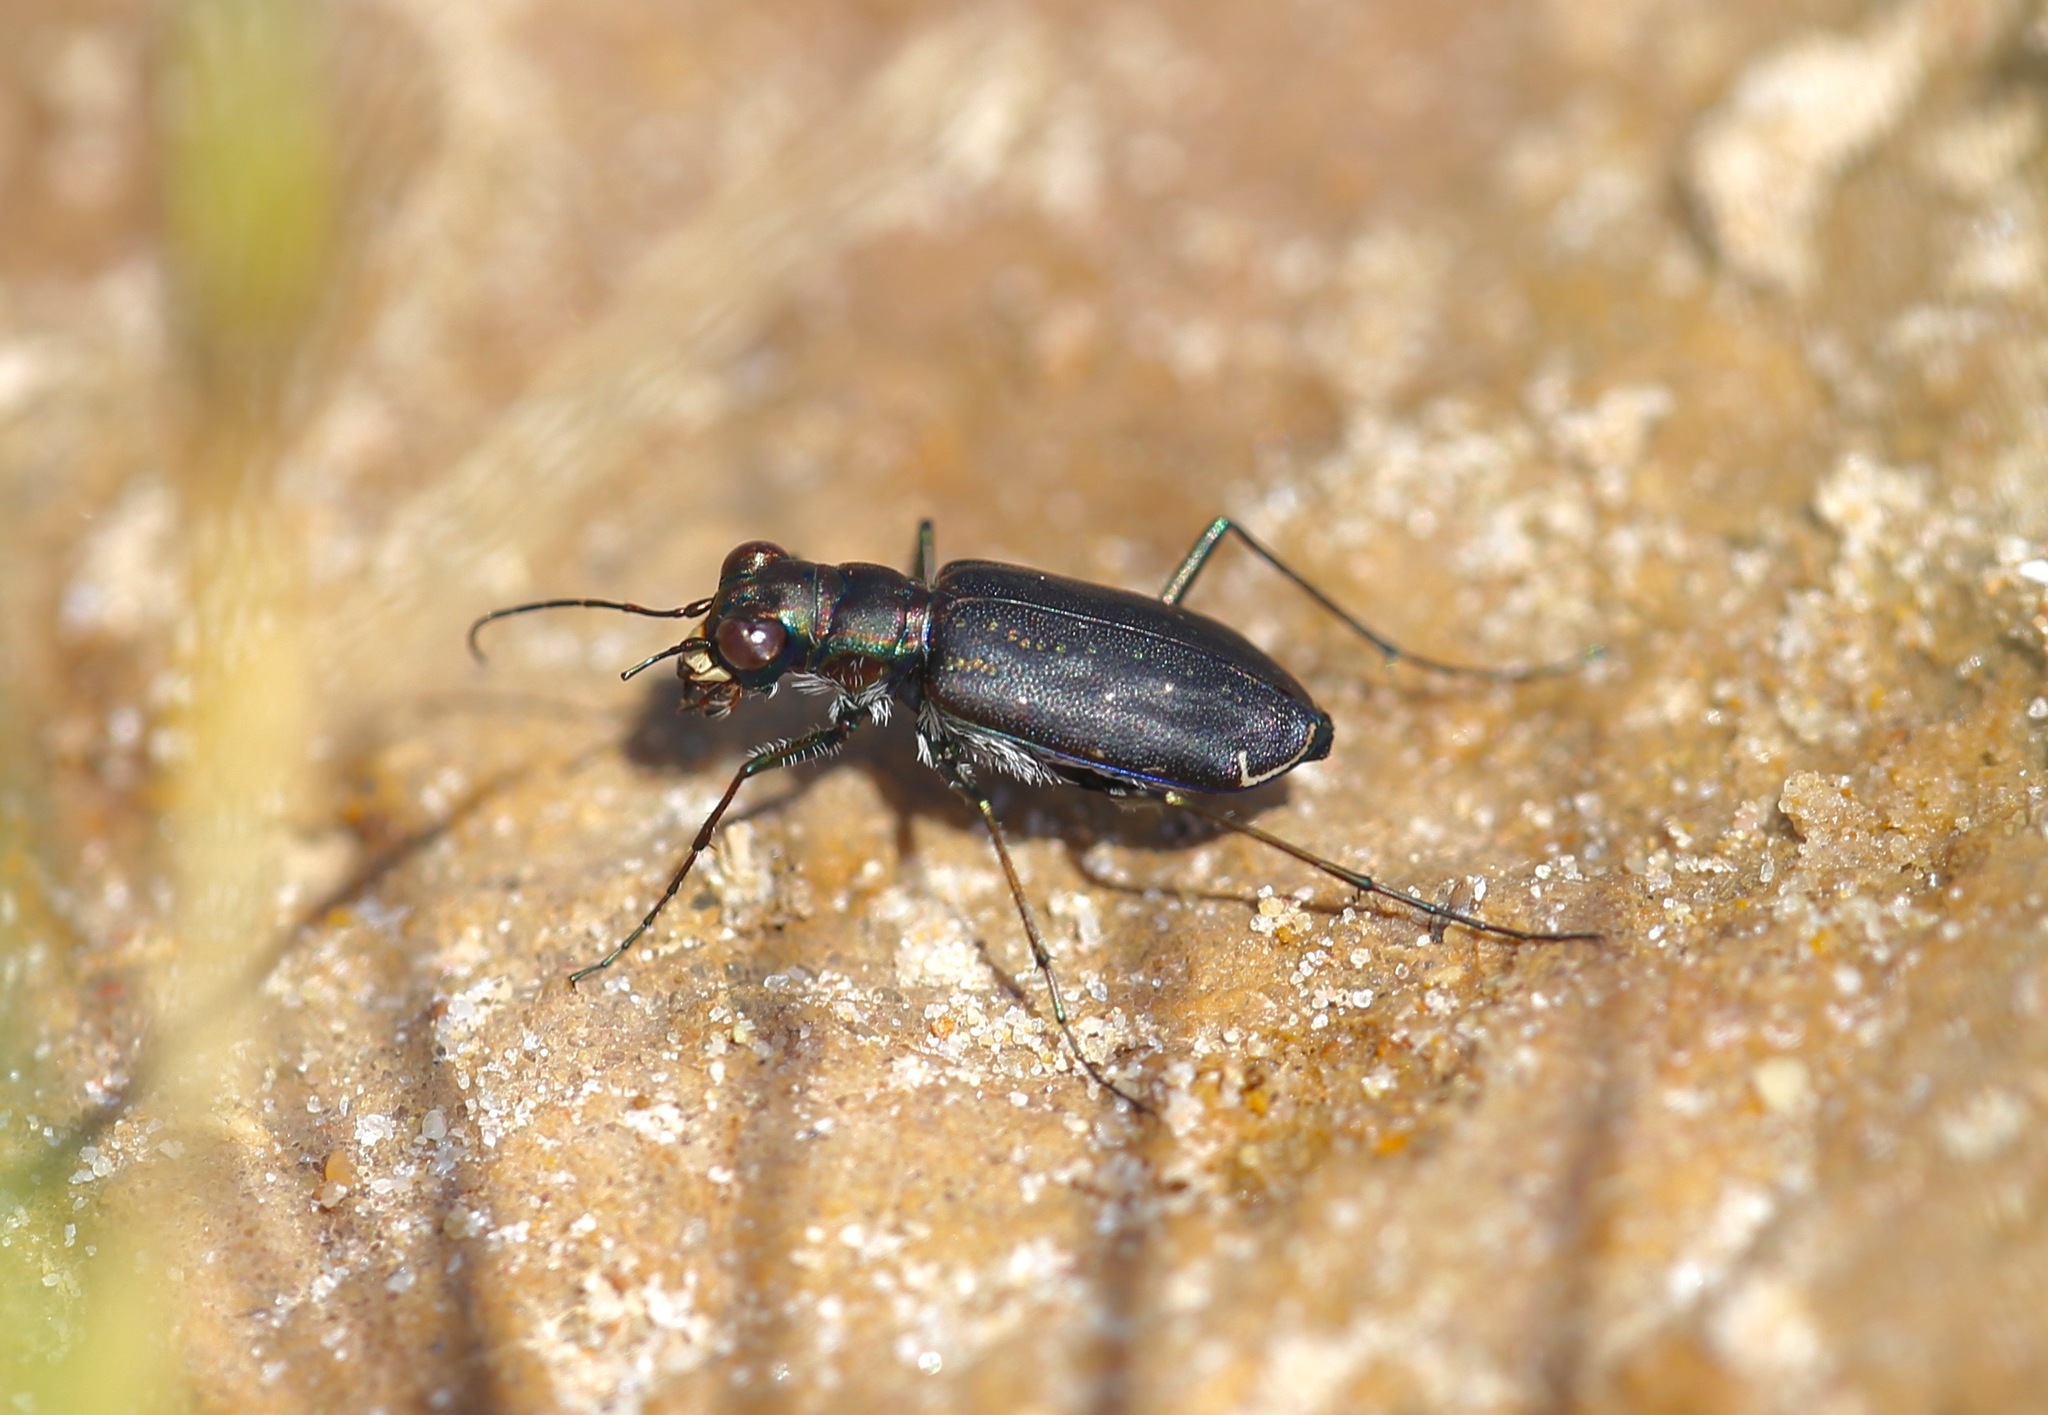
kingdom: Animalia
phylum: Arthropoda
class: Insecta
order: Coleoptera
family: Carabidae
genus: Cicindela
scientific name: Cicindela punctulata
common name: Punctured tiger beetle
